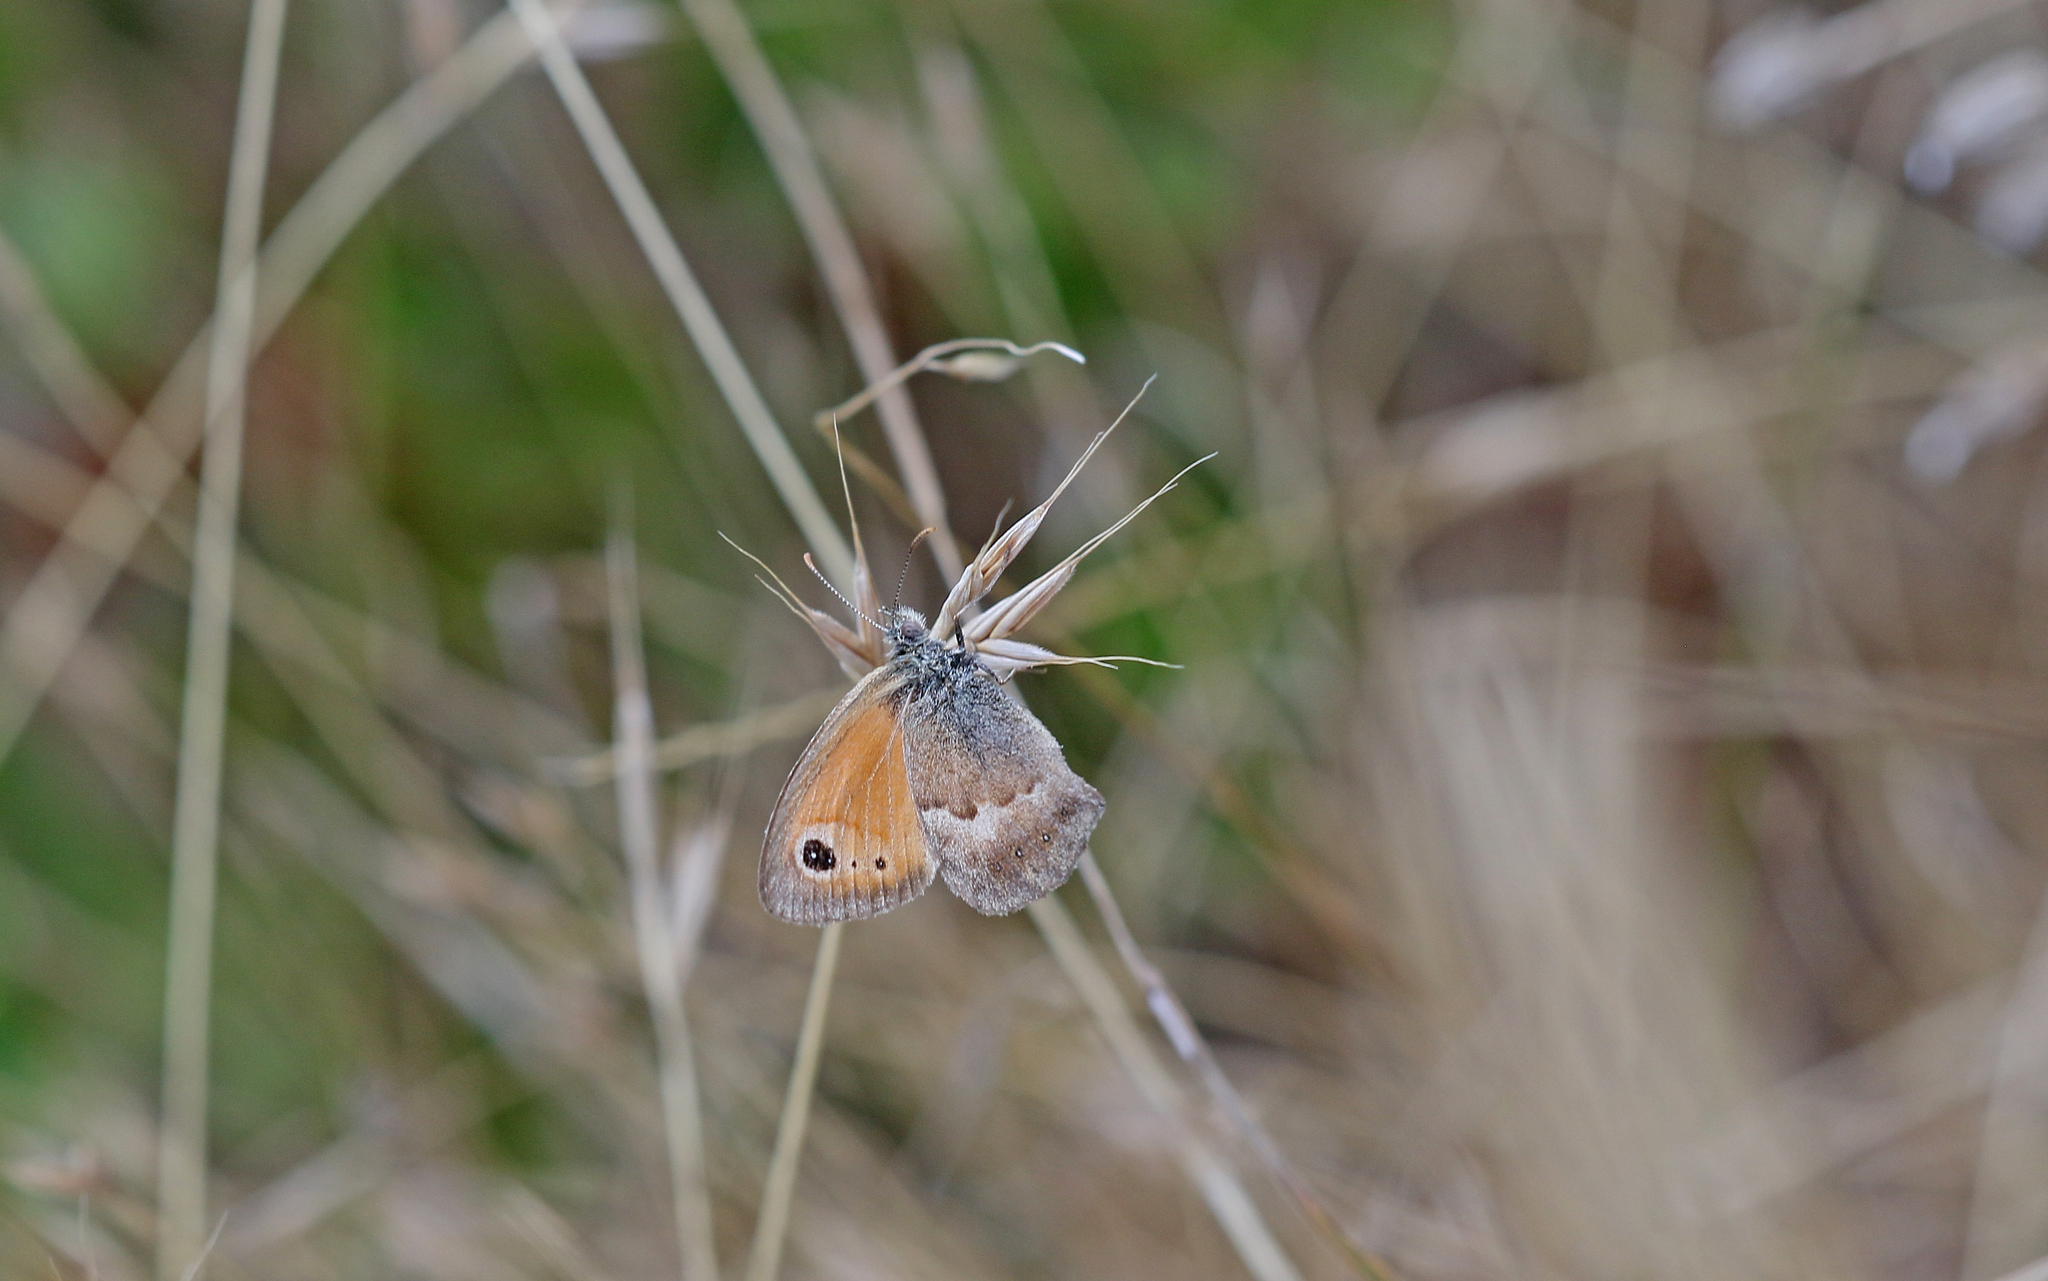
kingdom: Animalia
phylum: Arthropoda
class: Insecta
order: Lepidoptera
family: Nymphalidae
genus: Coenonympha
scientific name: Coenonympha pamphilus
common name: Small heath
